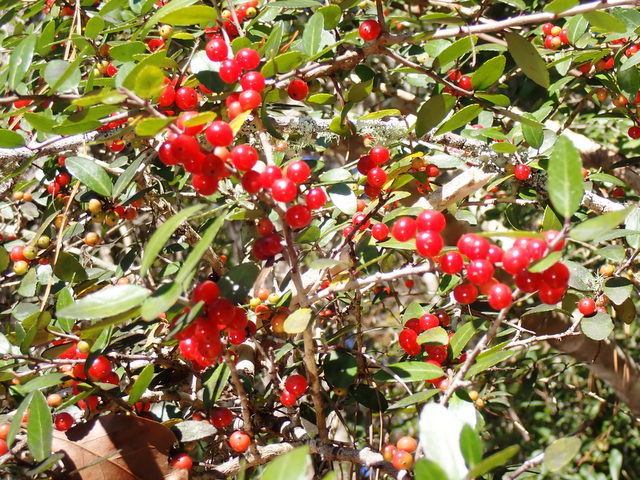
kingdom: Plantae
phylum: Tracheophyta
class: Magnoliopsida
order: Aquifoliales
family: Aquifoliaceae
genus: Ilex
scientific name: Ilex vomitoria
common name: Yaupon holly
